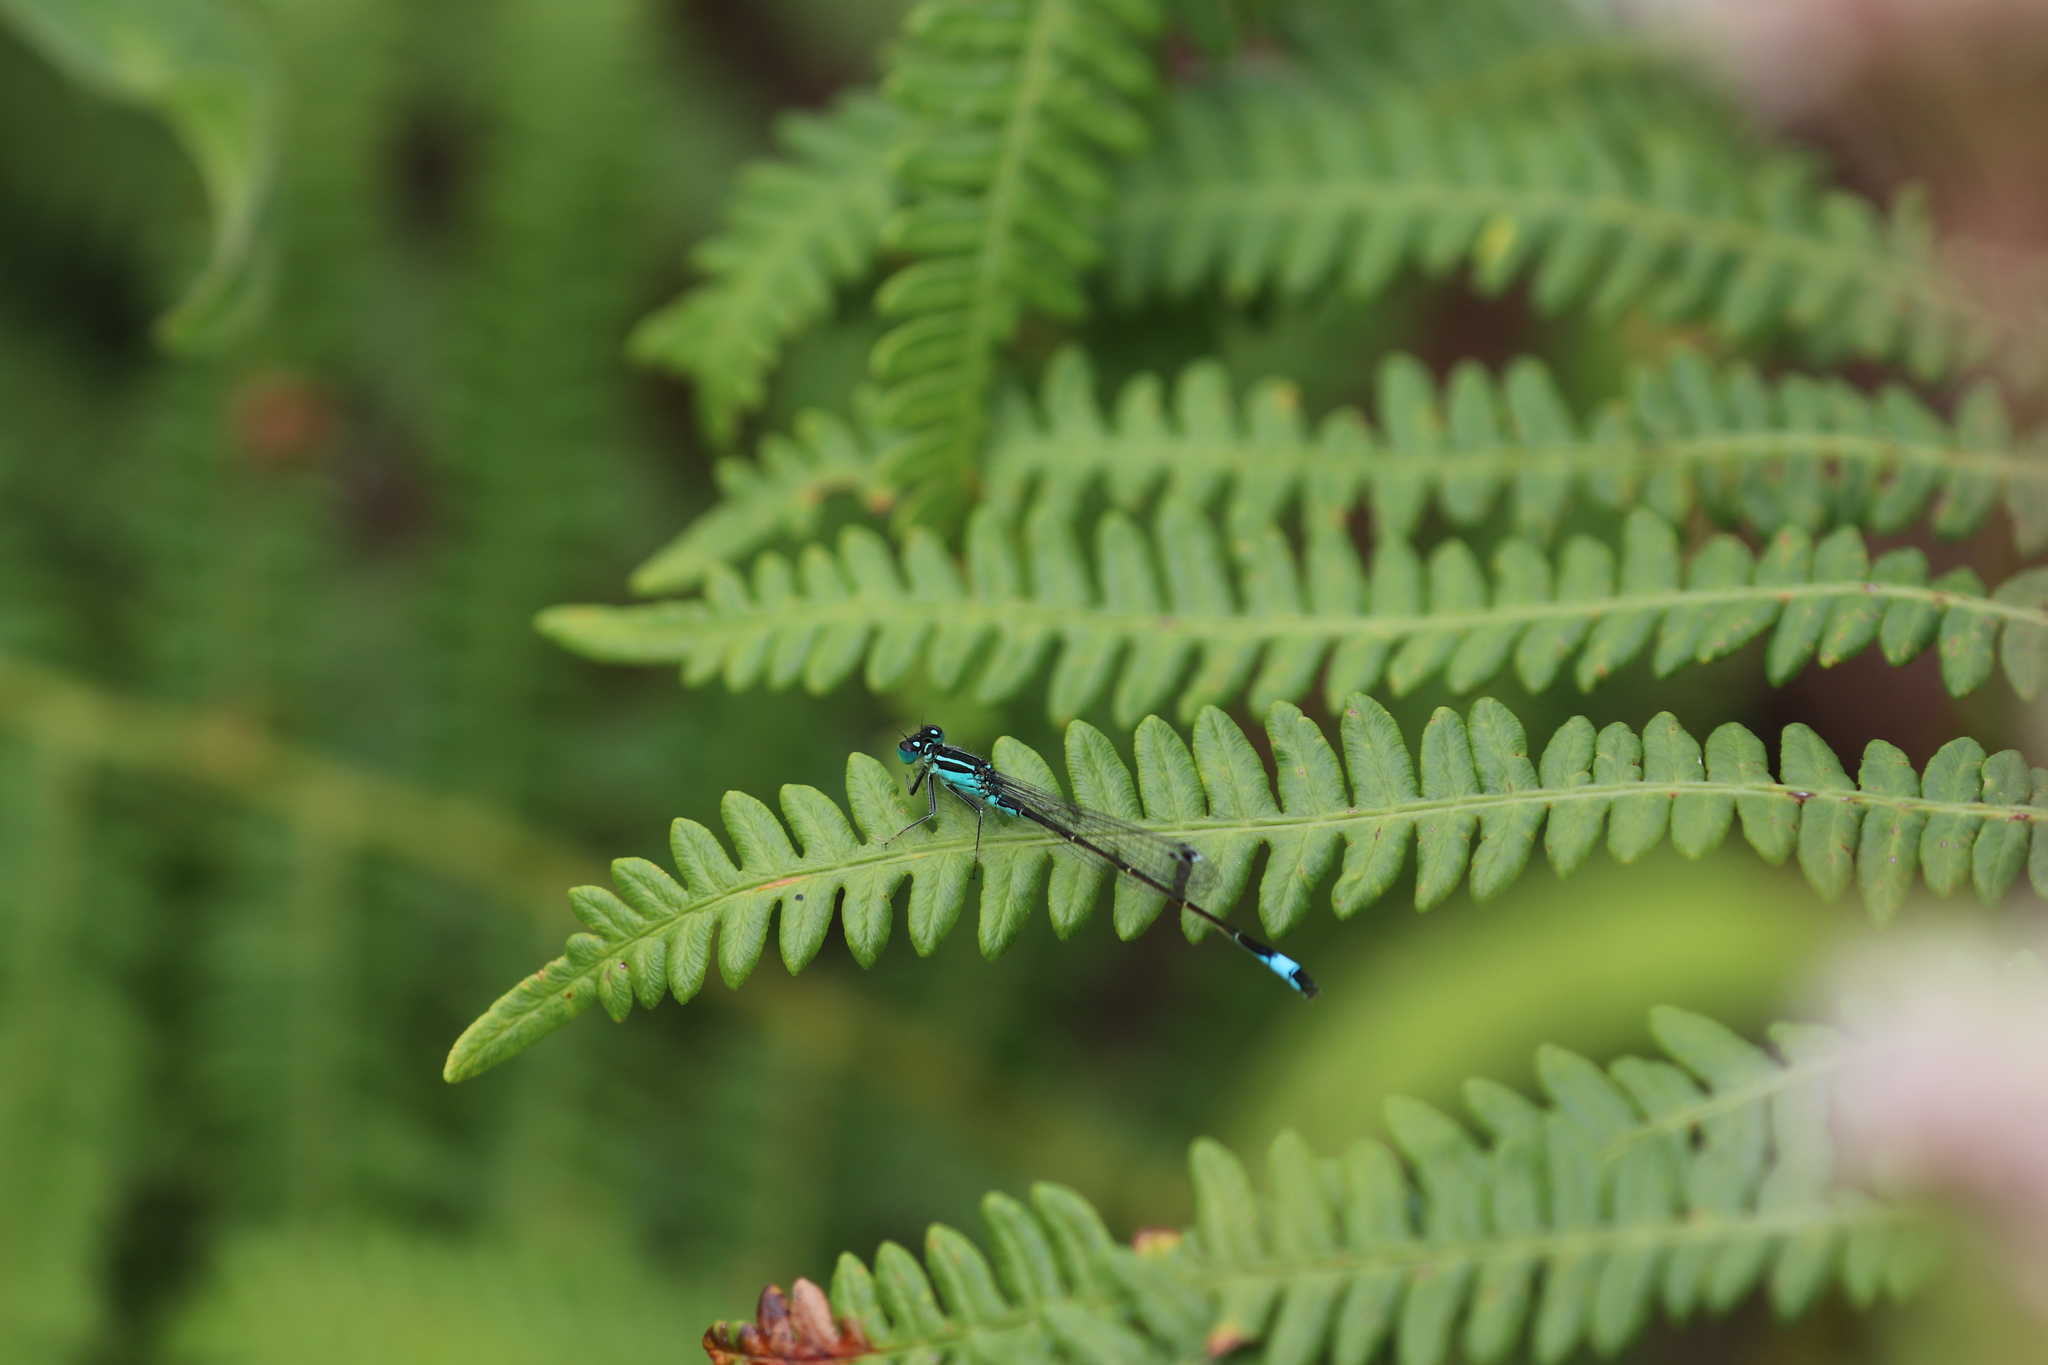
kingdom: Animalia
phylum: Arthropoda
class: Insecta
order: Odonata
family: Coenagrionidae
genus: Ischnura
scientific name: Ischnura elegans
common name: Blue-tailed damselfly
